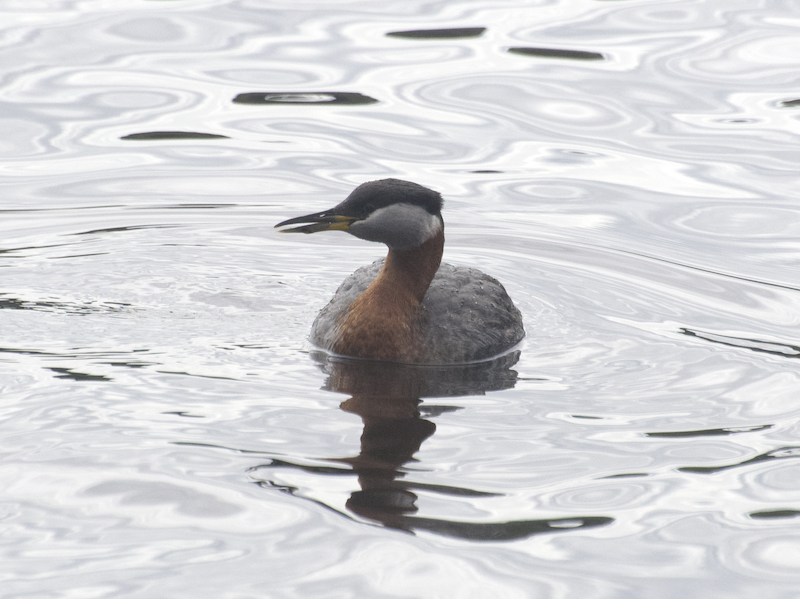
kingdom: Animalia
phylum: Chordata
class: Aves
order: Podicipediformes
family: Podicipedidae
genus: Podiceps
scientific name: Podiceps grisegena
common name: Red-necked grebe
